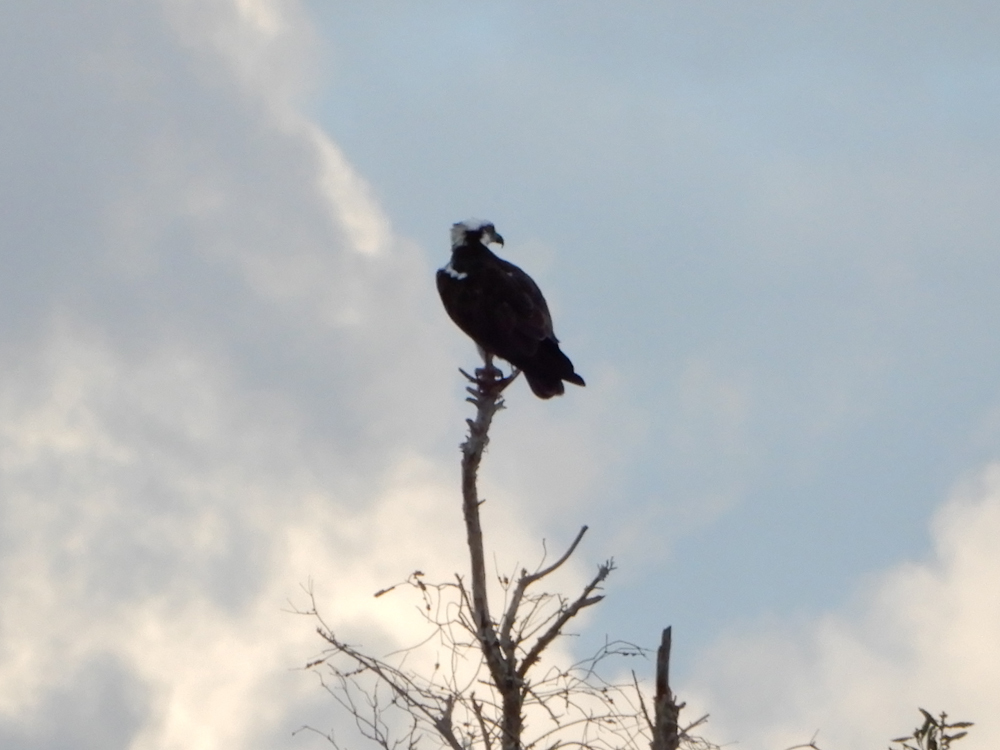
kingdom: Animalia
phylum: Chordata
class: Aves
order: Accipitriformes
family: Pandionidae
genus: Pandion
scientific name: Pandion haliaetus
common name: Osprey
